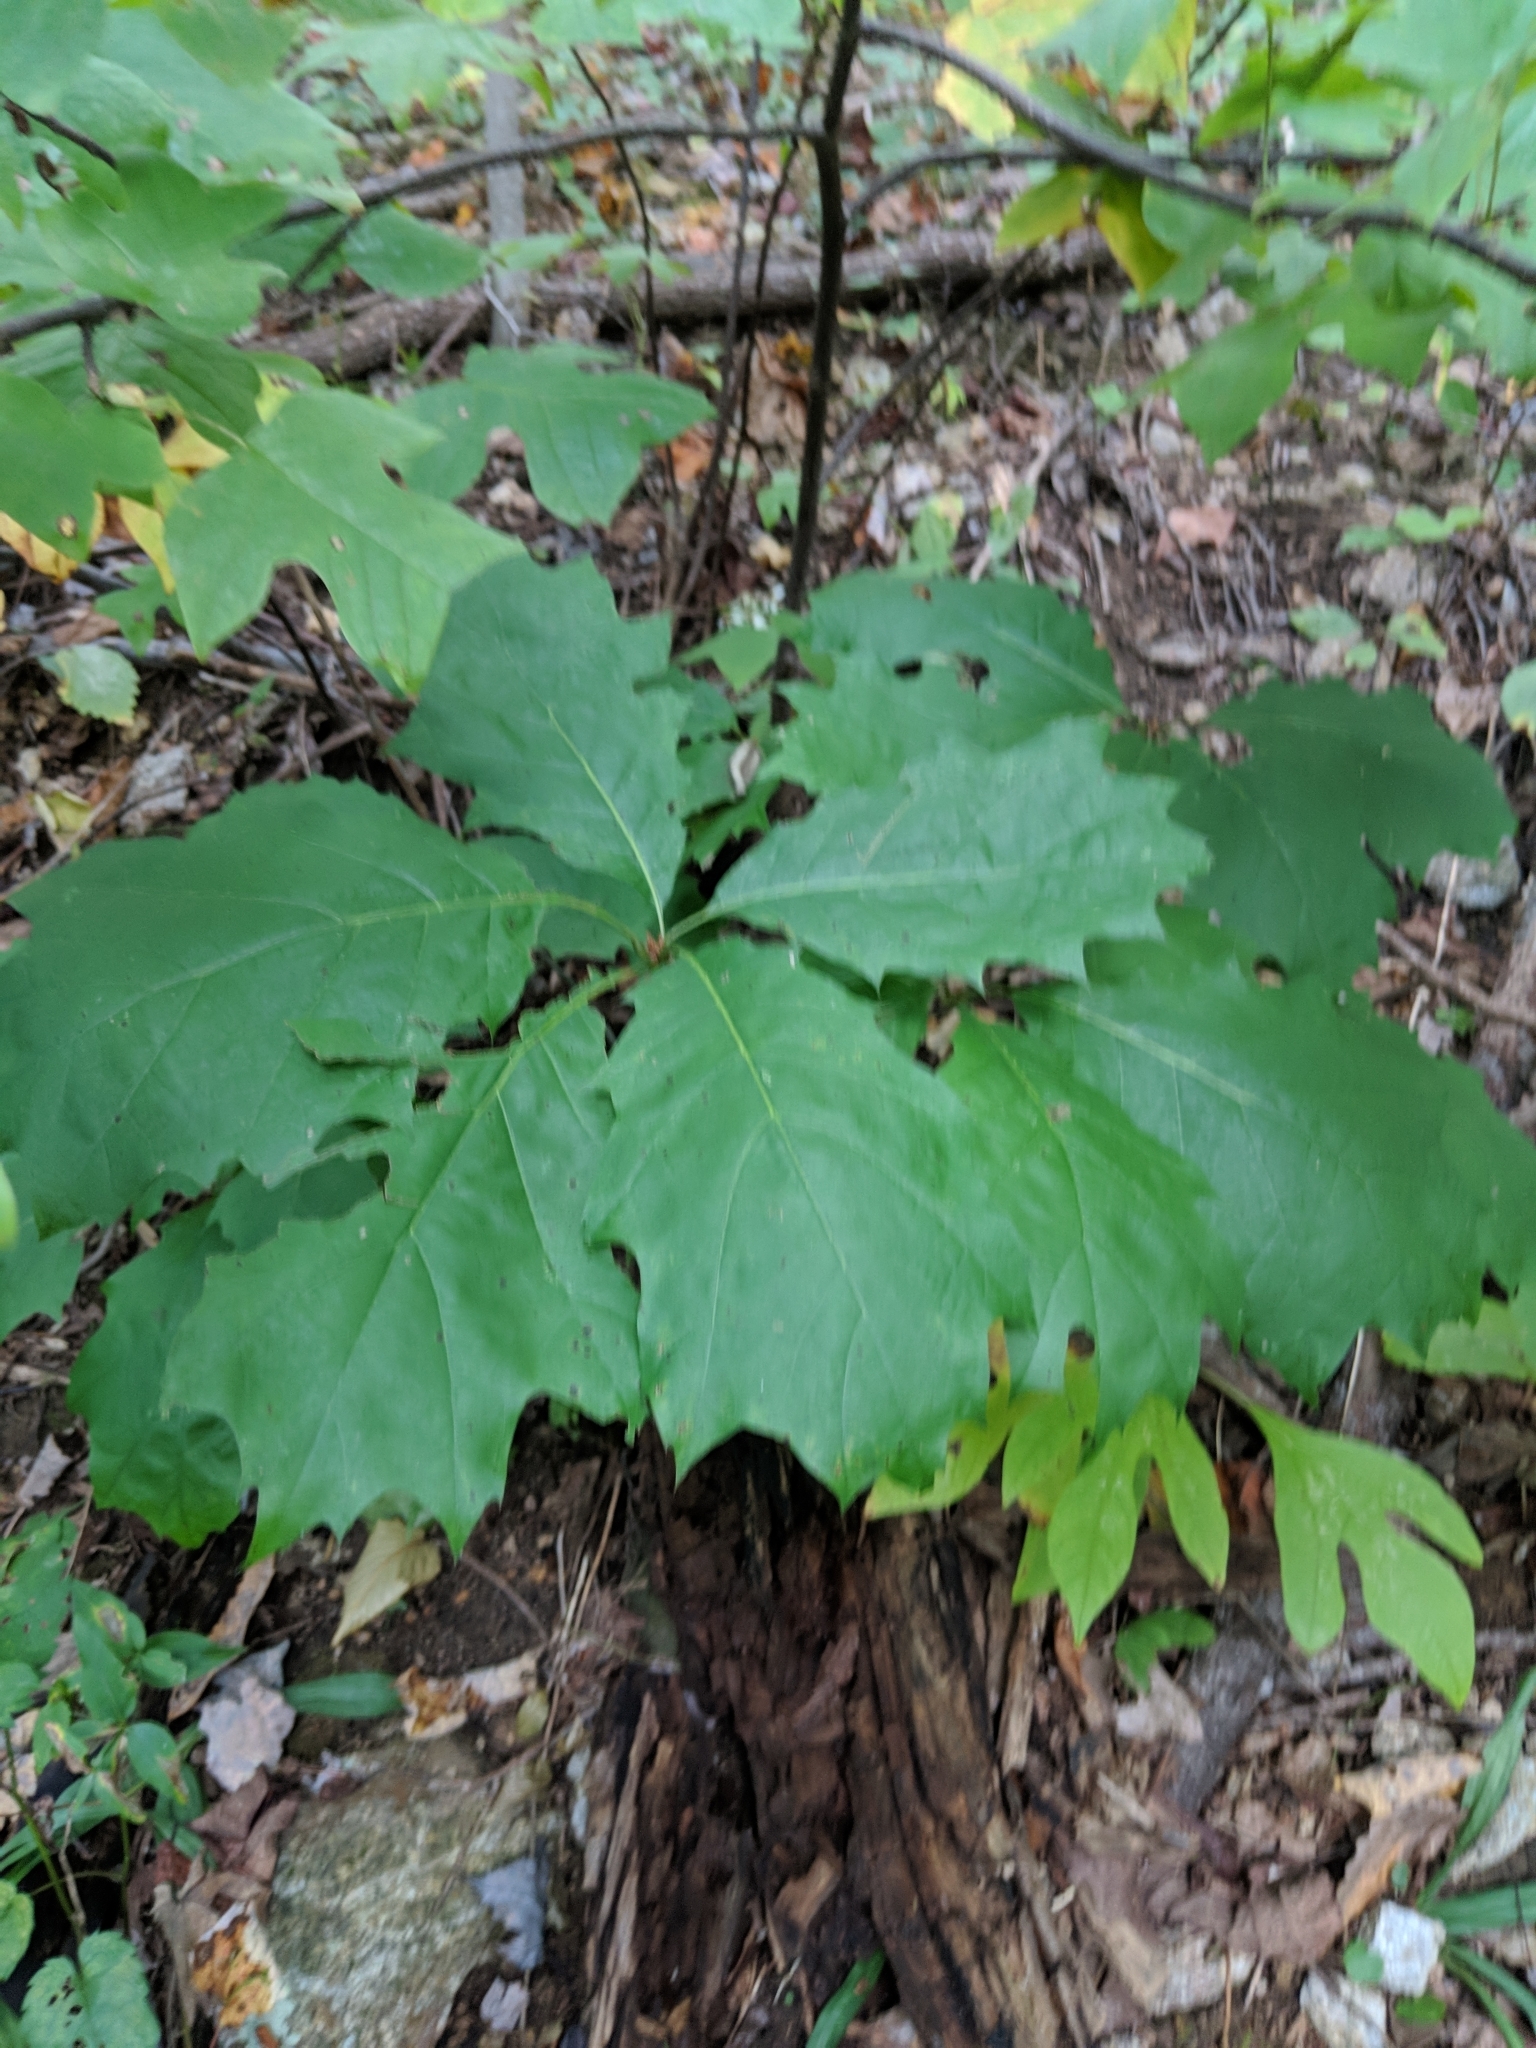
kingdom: Plantae
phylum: Tracheophyta
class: Magnoliopsida
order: Fagales
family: Fagaceae
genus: Quercus
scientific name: Quercus rubra
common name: Red oak
